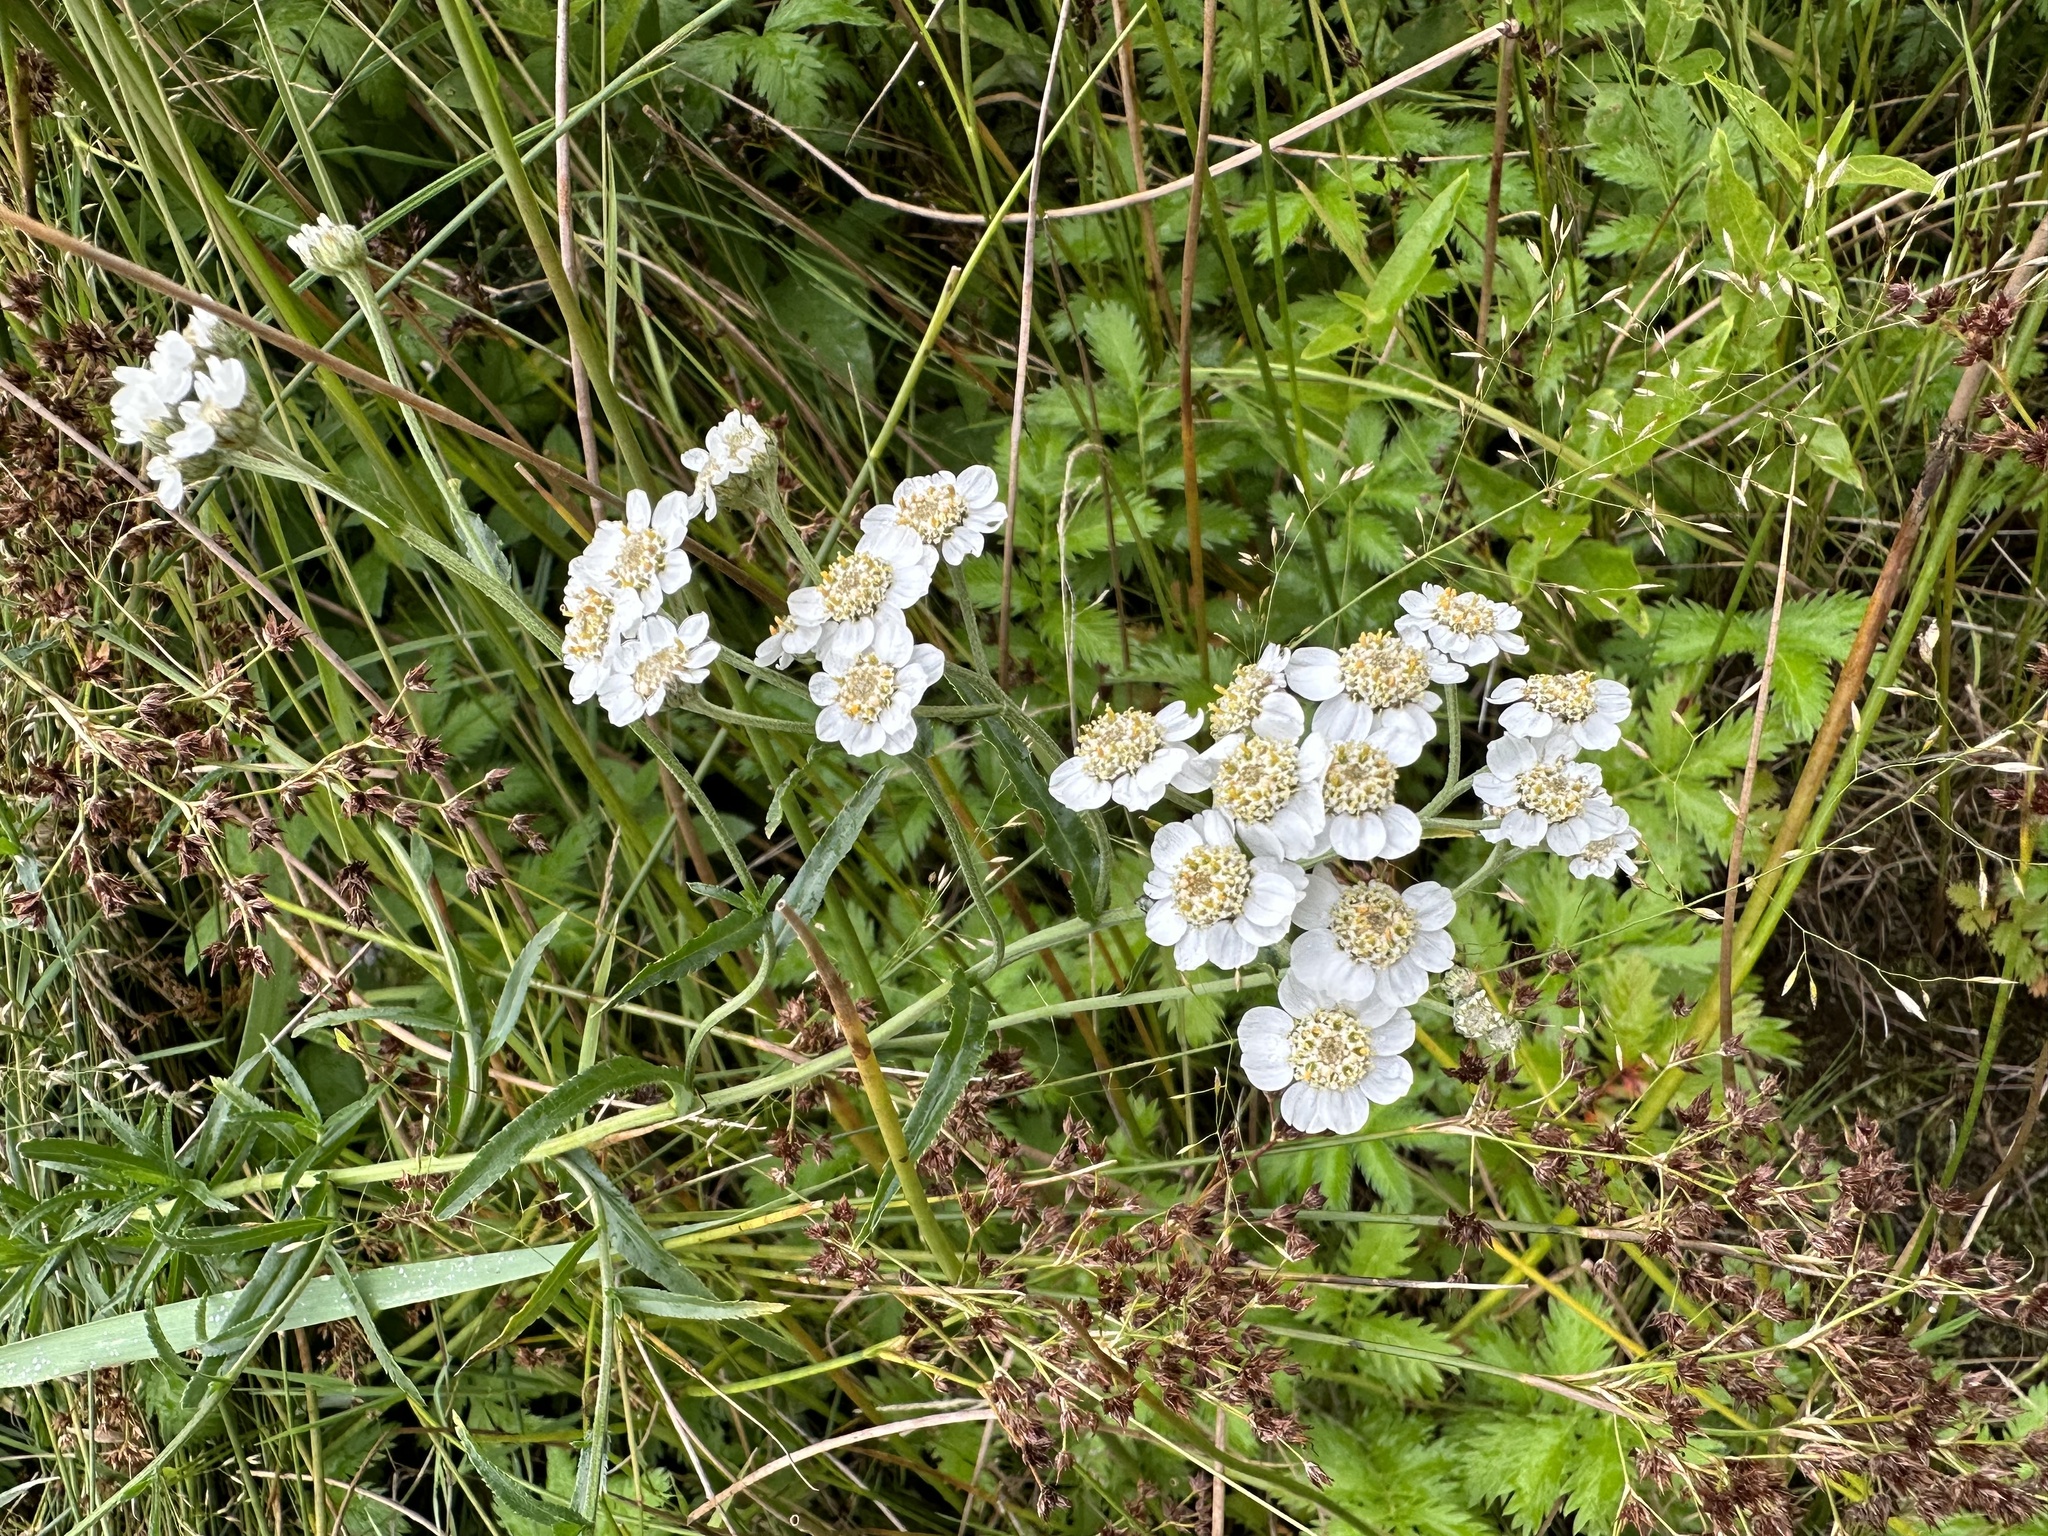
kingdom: Plantae
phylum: Tracheophyta
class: Magnoliopsida
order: Asterales
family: Asteraceae
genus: Achillea
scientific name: Achillea ptarmica
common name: Sneezeweed
